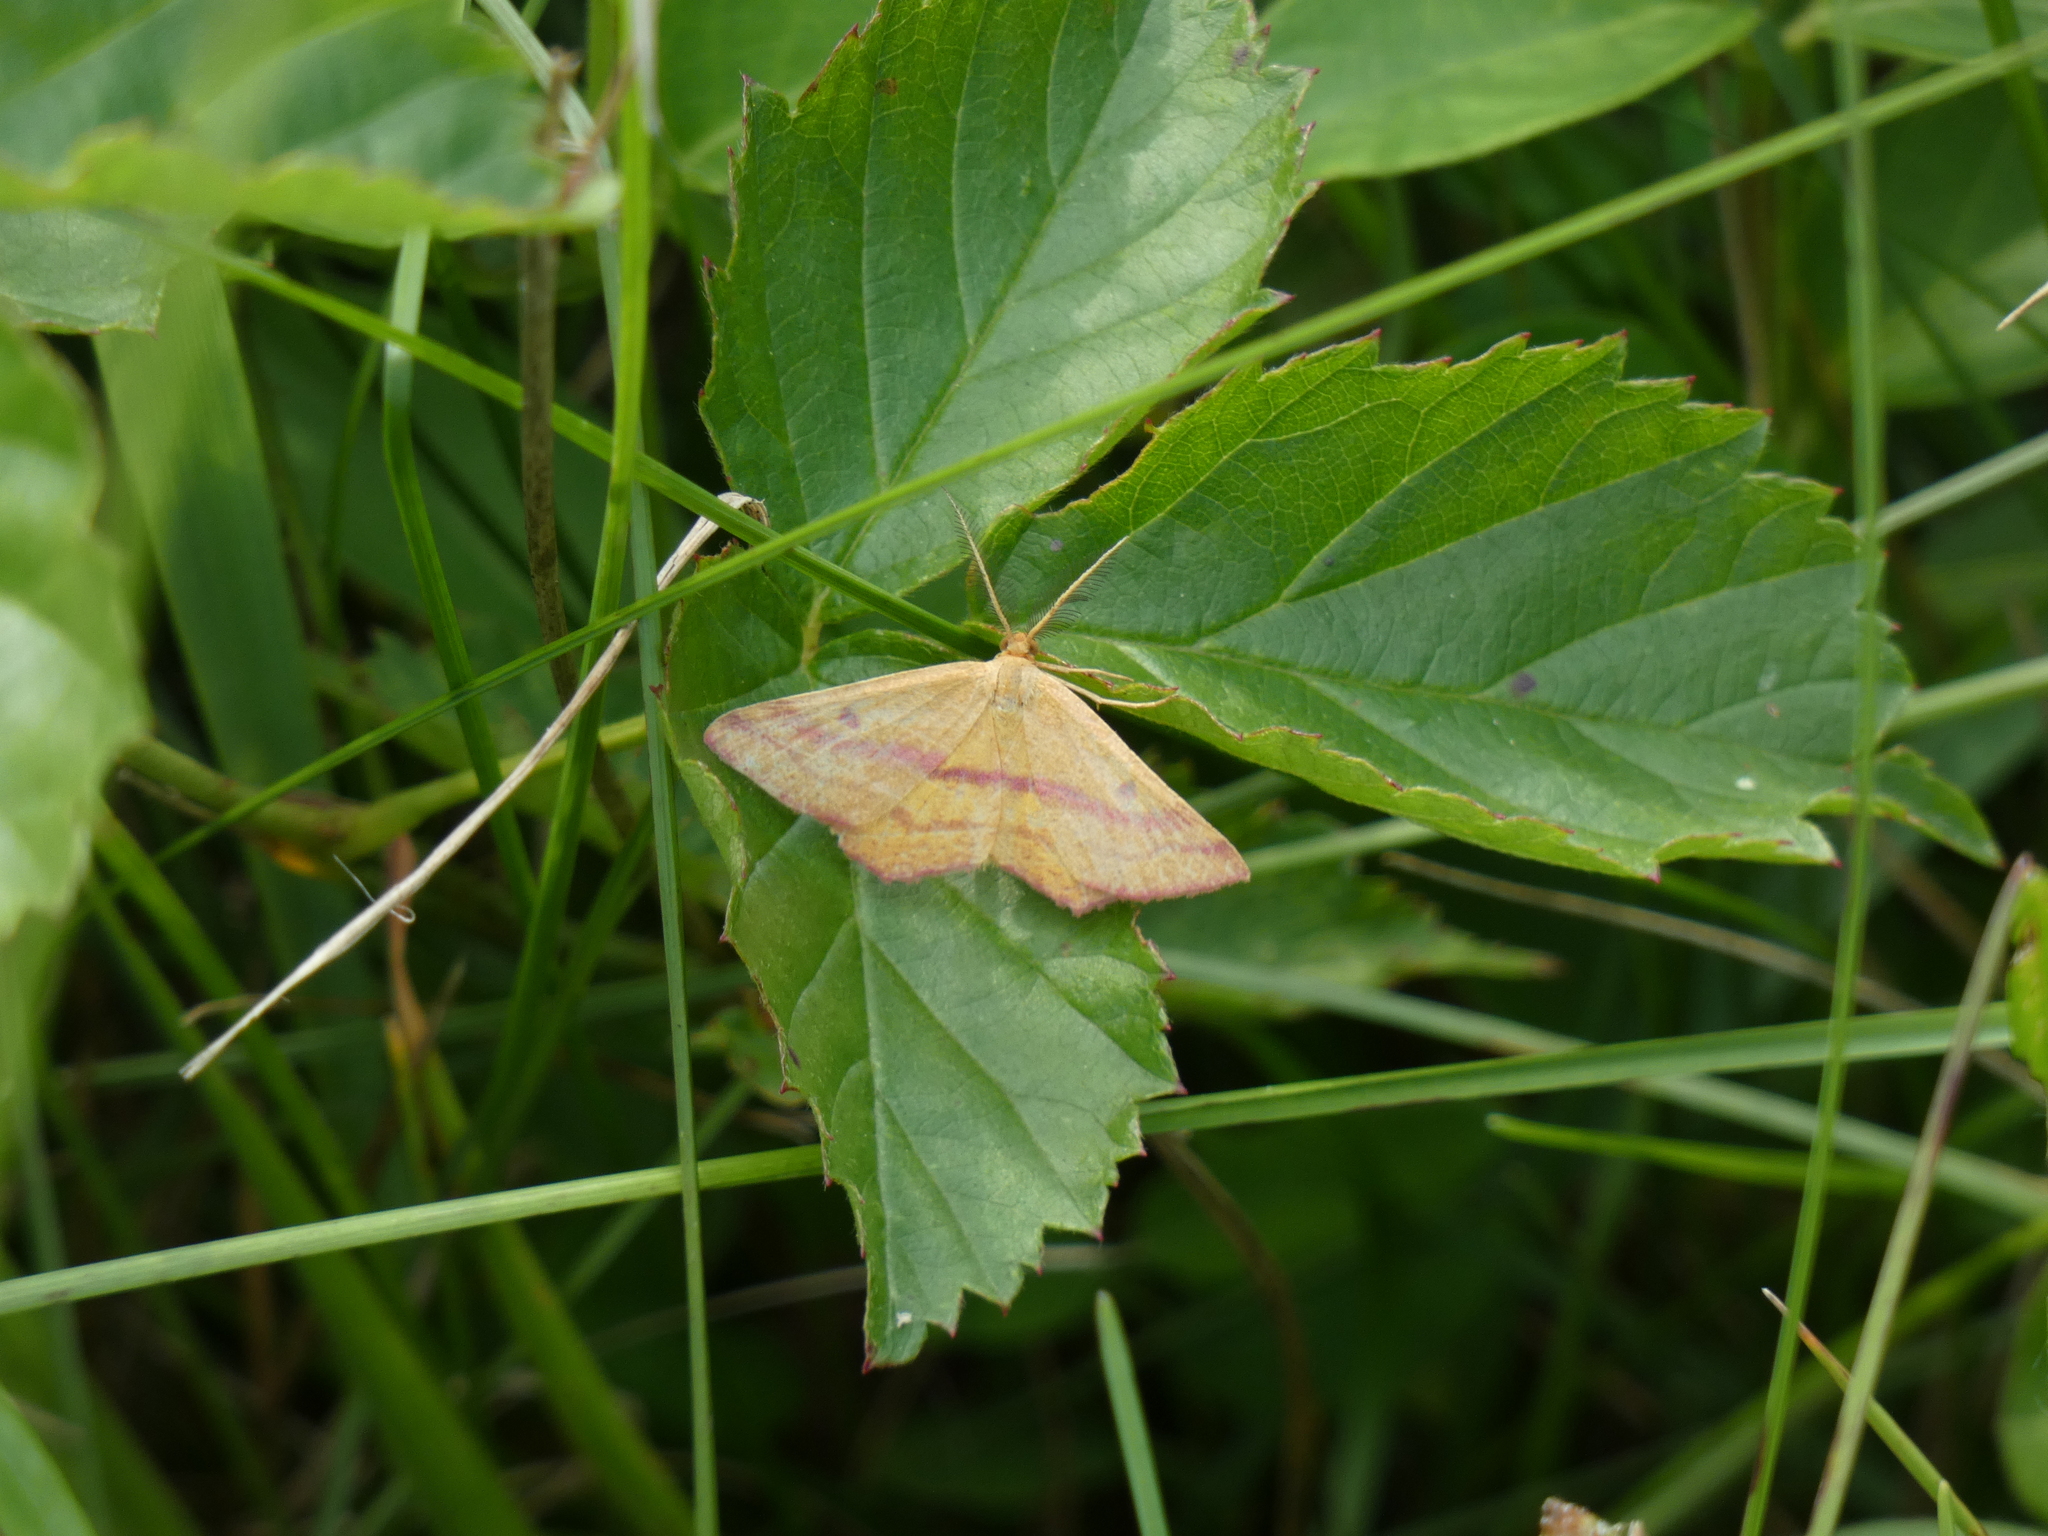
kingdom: Animalia
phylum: Arthropoda
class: Insecta
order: Lepidoptera
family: Geometridae
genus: Haematopis
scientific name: Haematopis grataria
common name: Chickweed geometer
